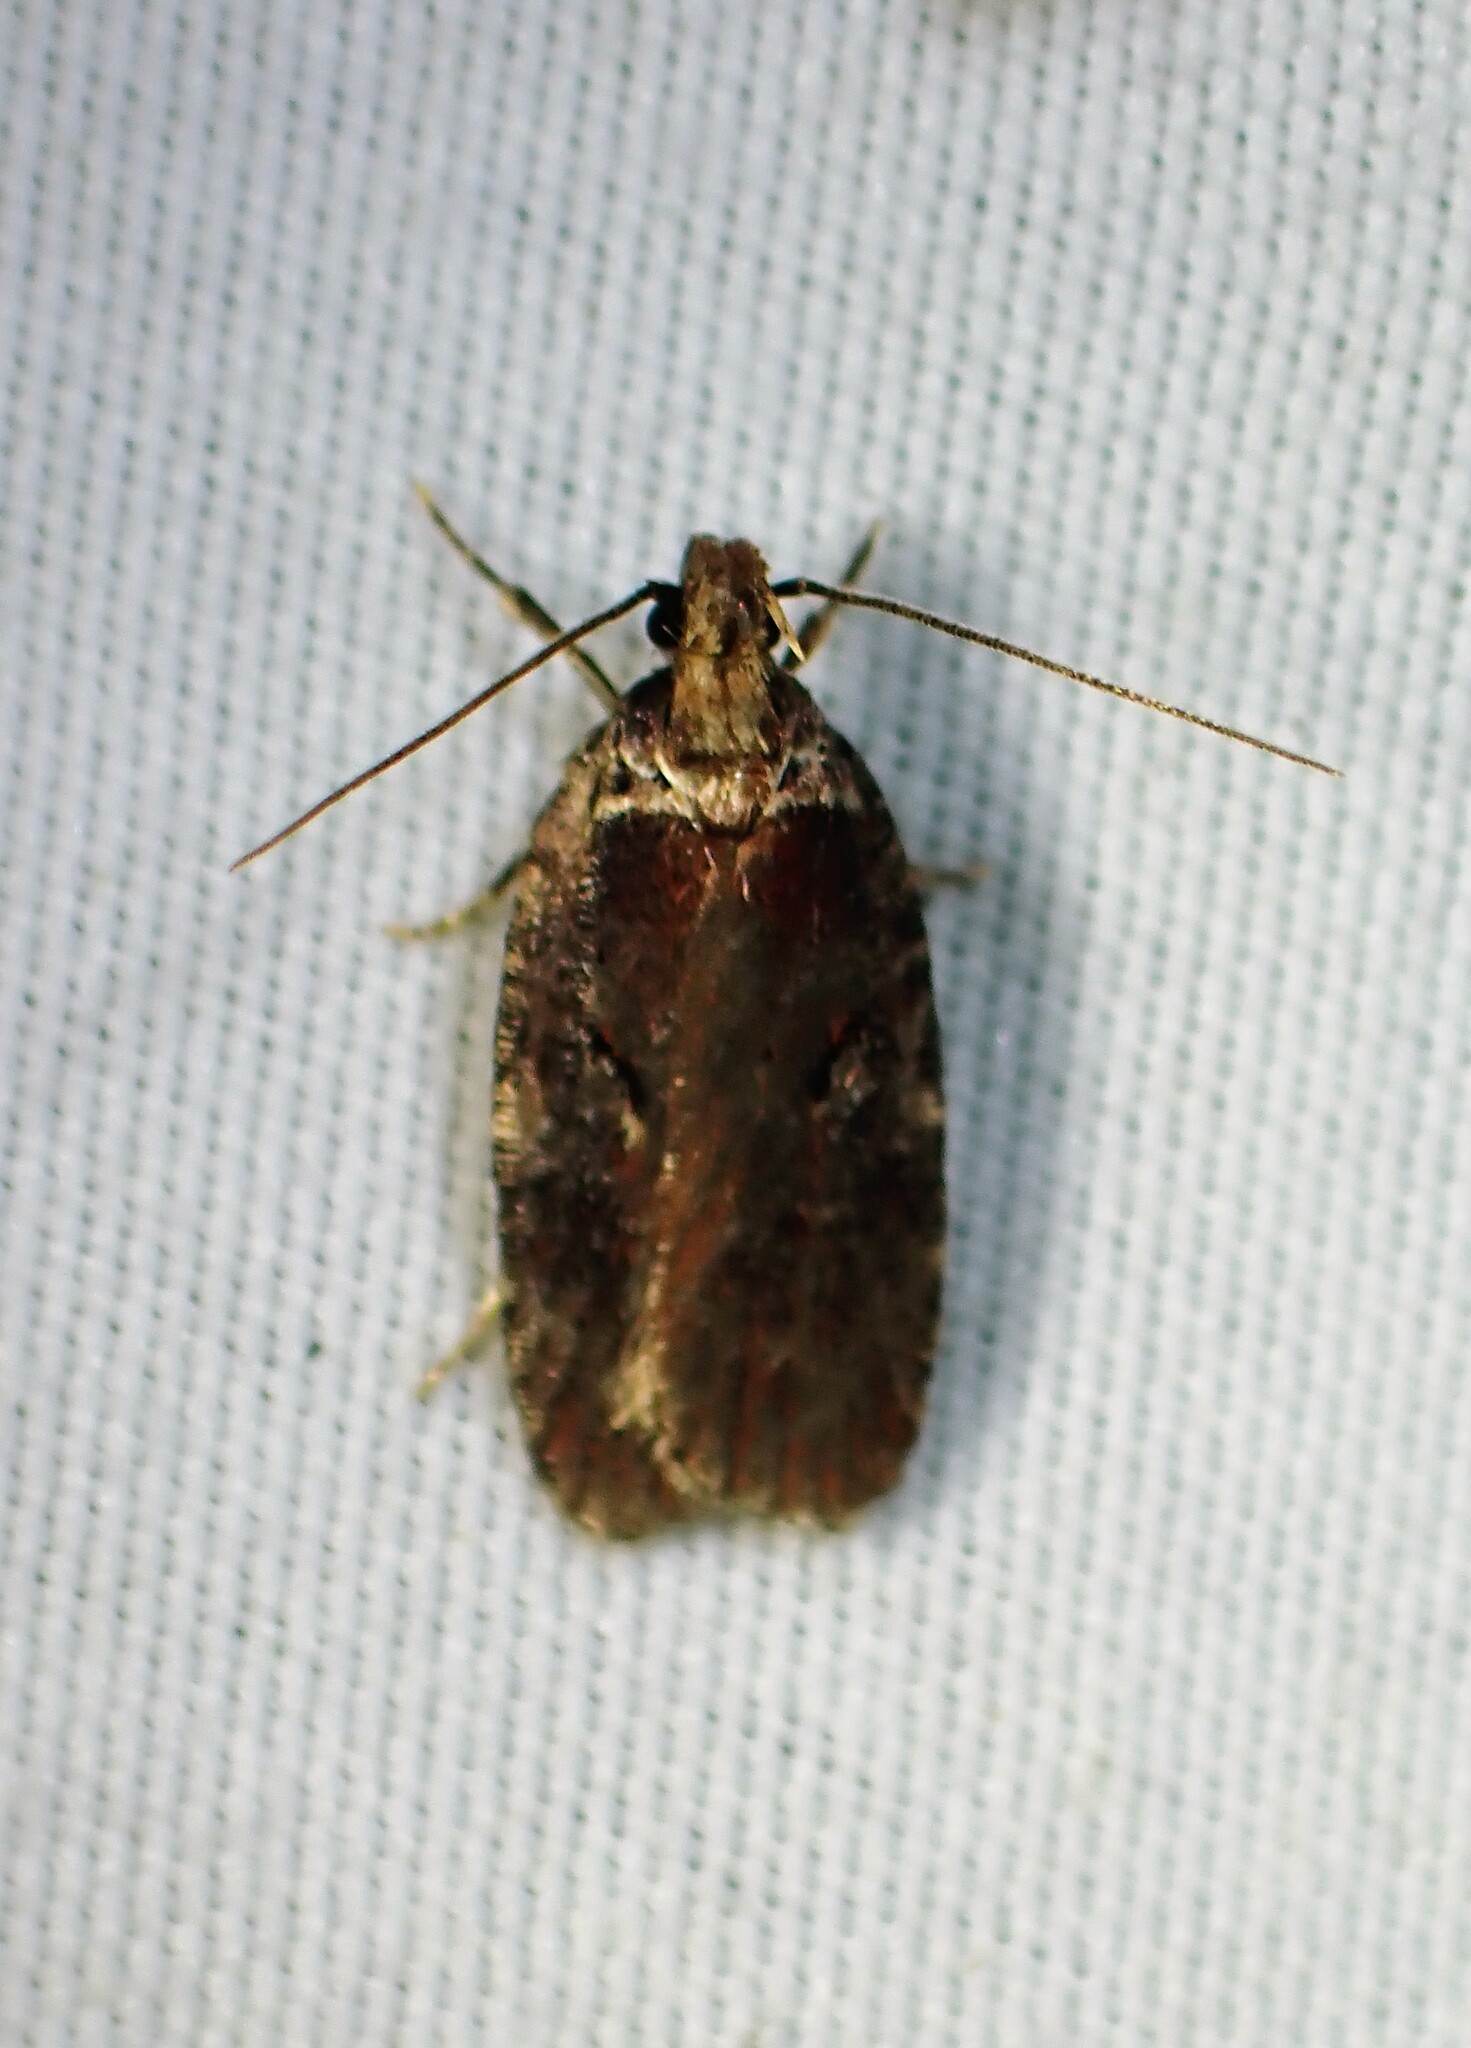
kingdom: Animalia
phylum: Arthropoda
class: Insecta
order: Lepidoptera
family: Depressariidae
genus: Agonopterix
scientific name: Agonopterix conterminella
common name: Sallow flat-body
